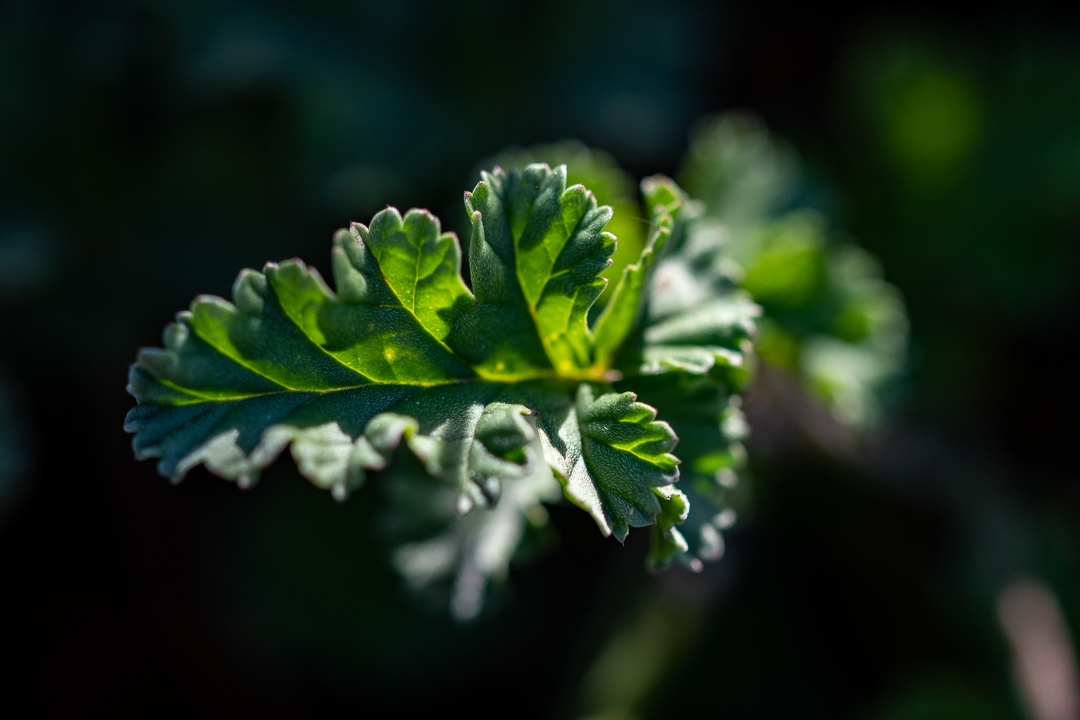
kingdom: Plantae
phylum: Tracheophyta
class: Magnoliopsida
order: Geraniales
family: Geraniaceae
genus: Pelargonium
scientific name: Pelargonium candicans
